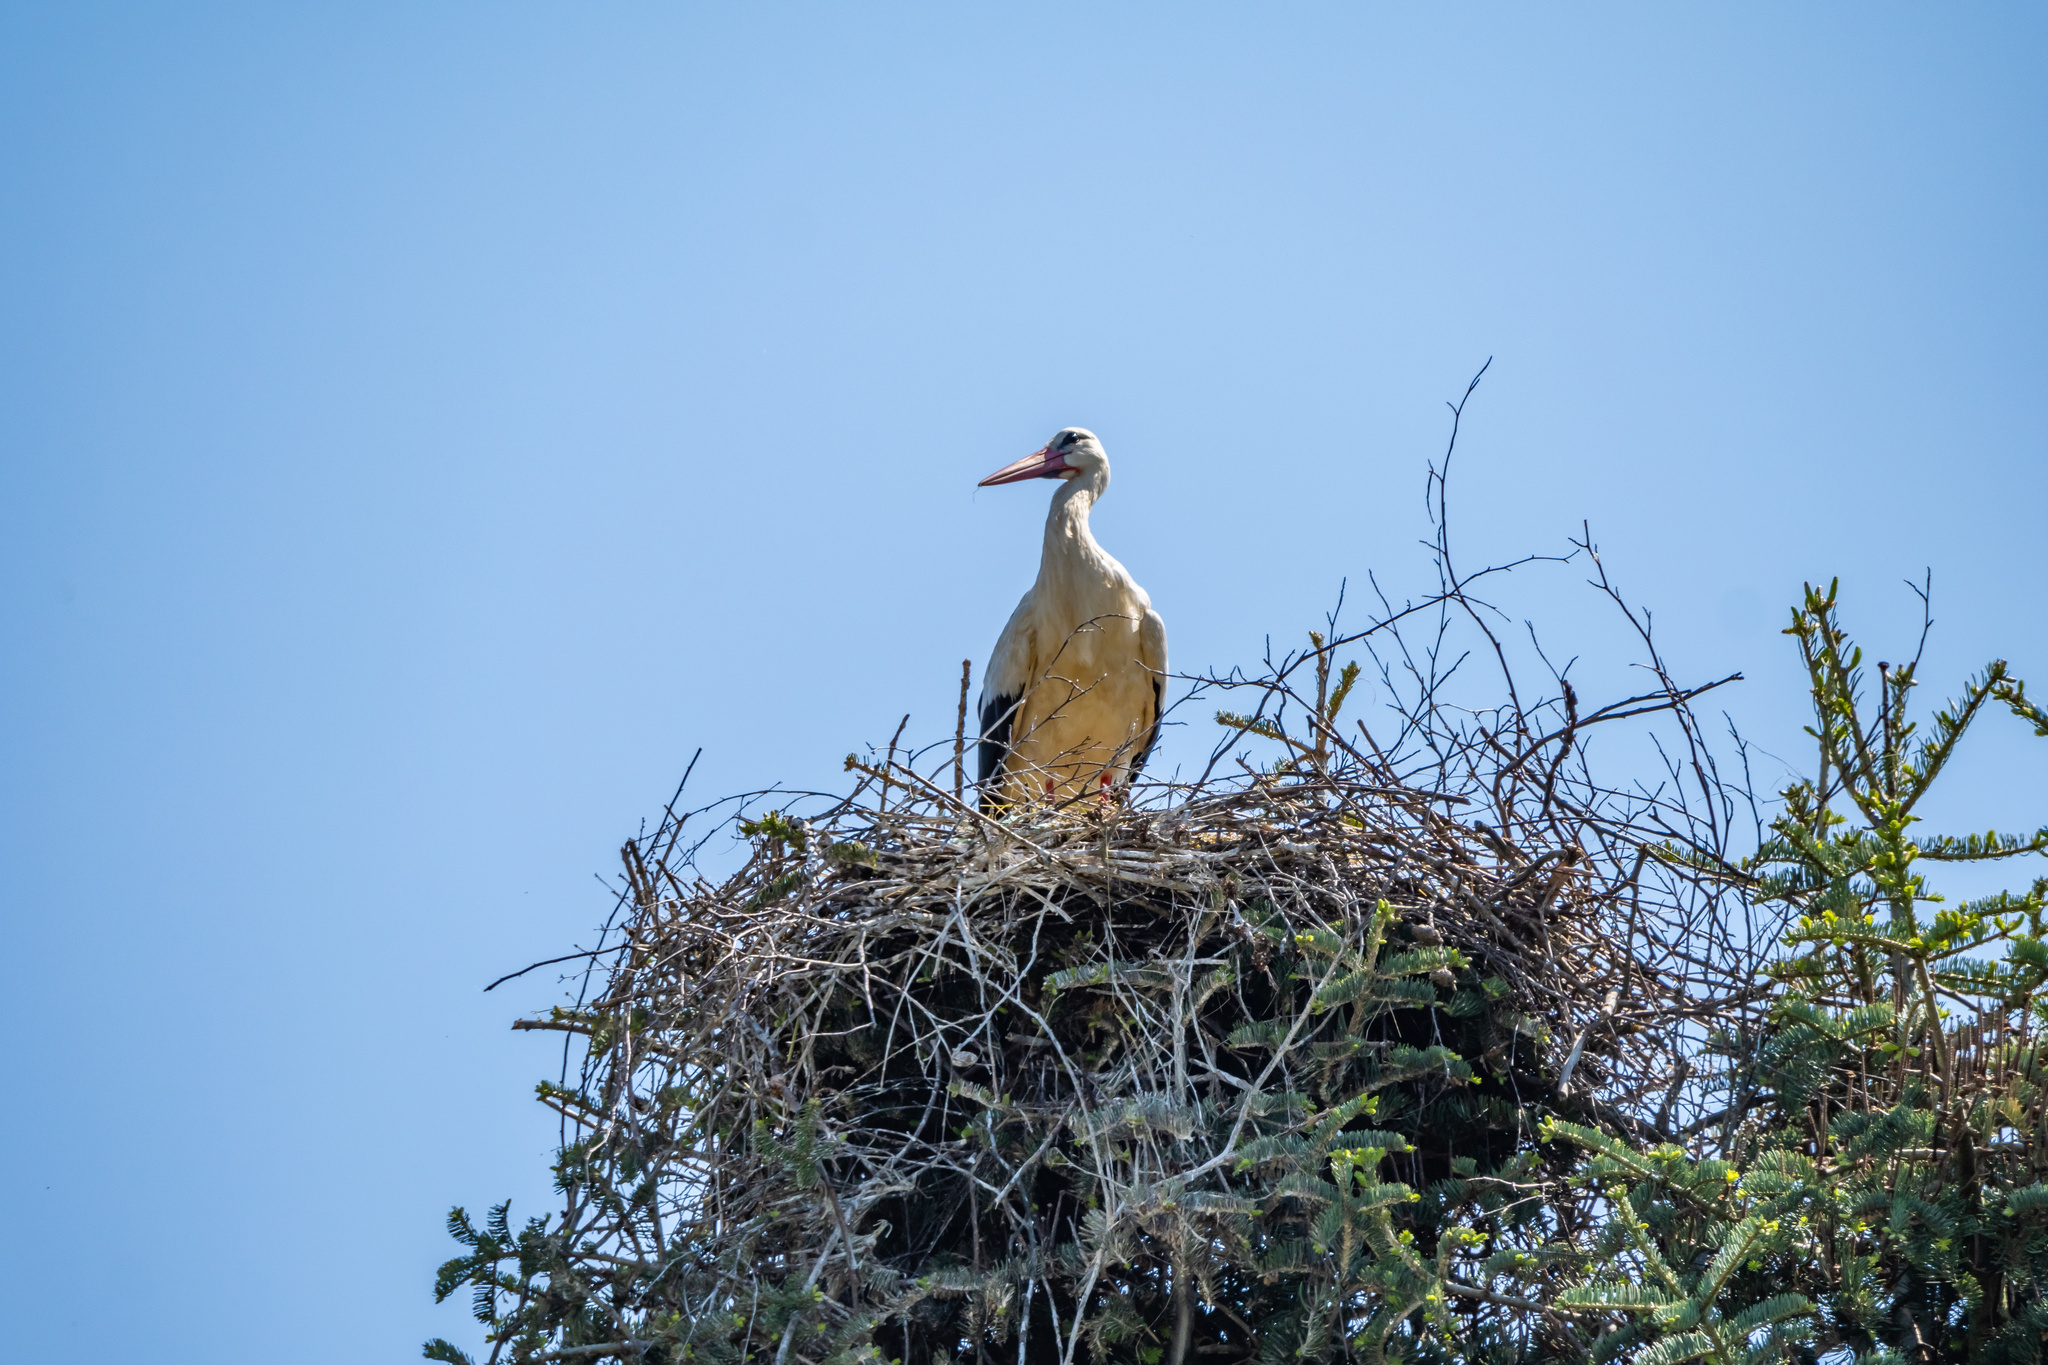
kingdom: Animalia
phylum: Chordata
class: Aves
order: Ciconiiformes
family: Ciconiidae
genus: Ciconia
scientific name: Ciconia ciconia
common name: White stork
